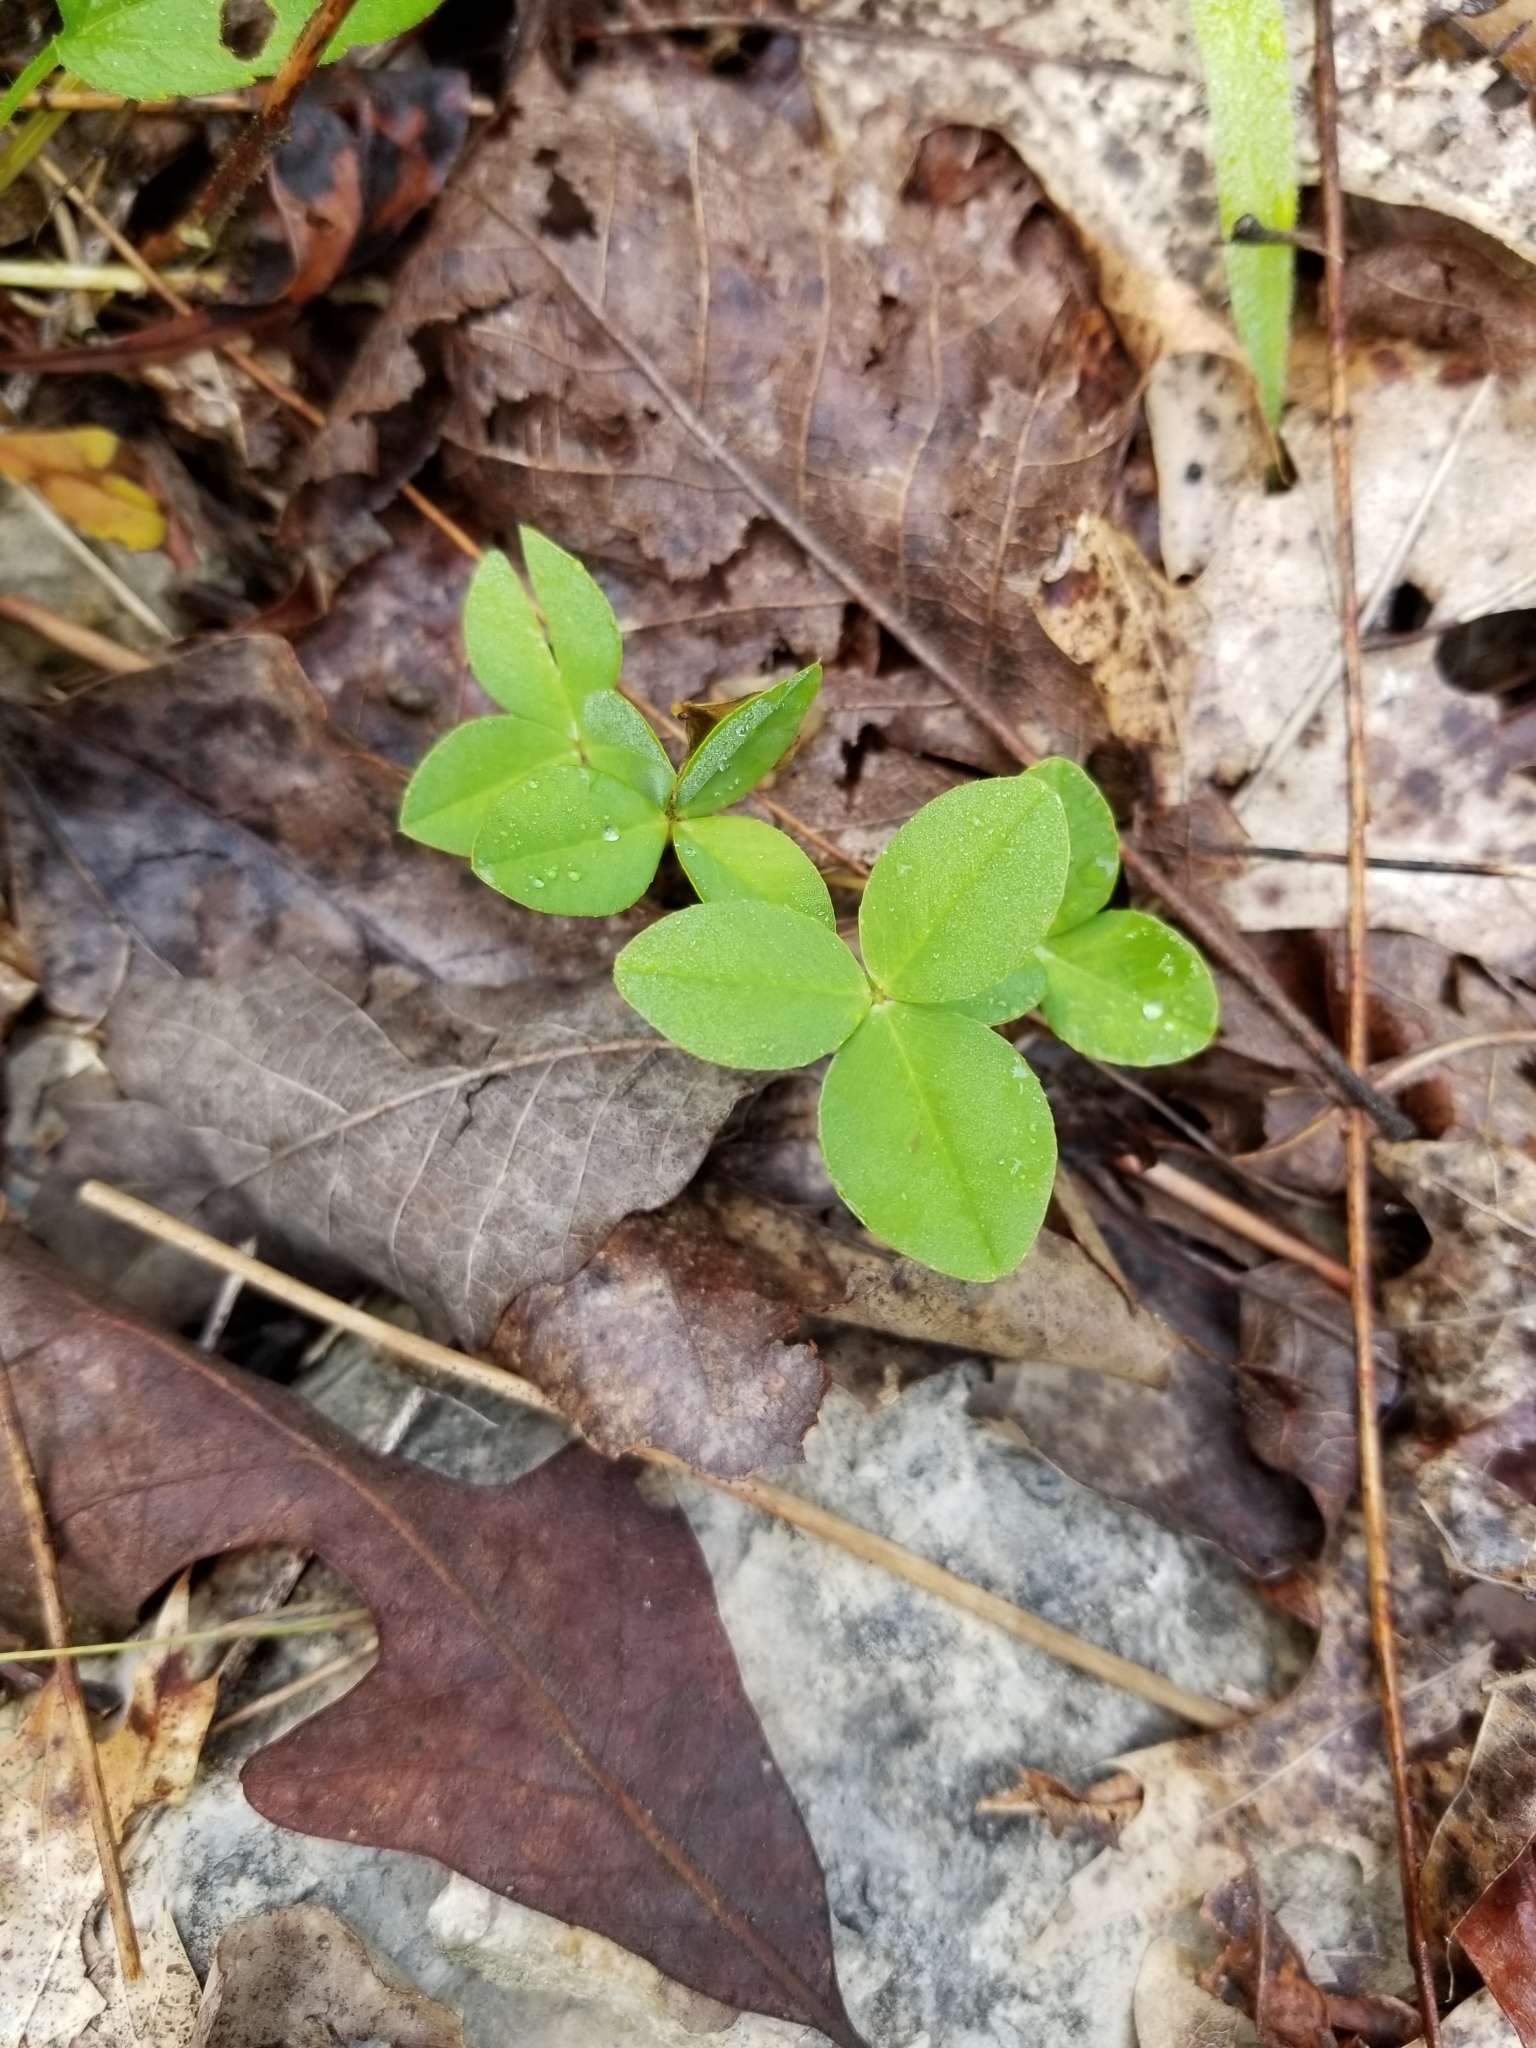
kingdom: Plantae
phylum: Tracheophyta
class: Magnoliopsida
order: Fabales
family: Fabaceae
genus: Trifolium
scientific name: Trifolium calcaricum
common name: Limestone clover
